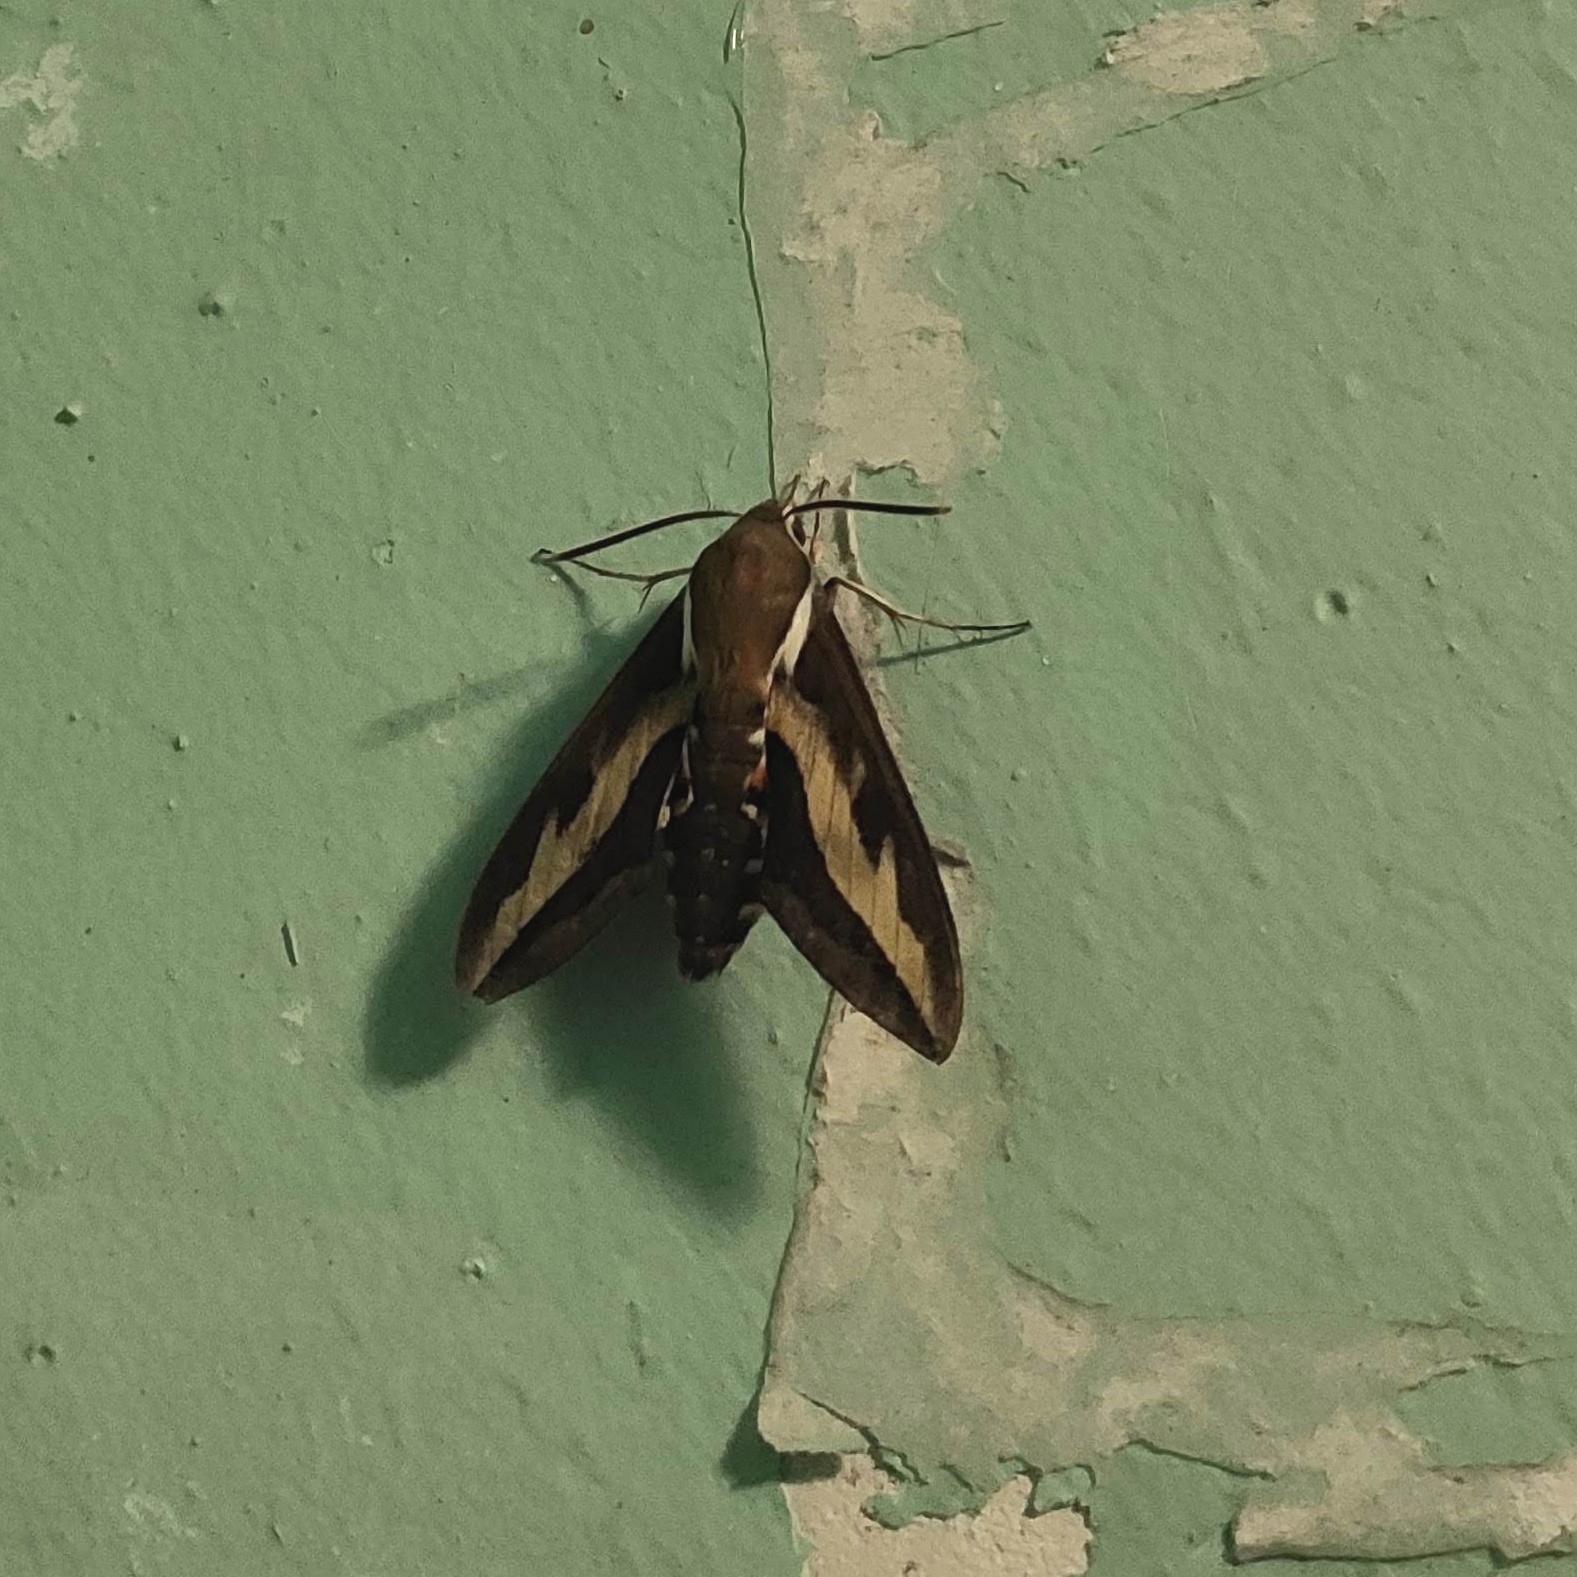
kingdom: Animalia
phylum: Arthropoda
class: Insecta
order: Lepidoptera
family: Sphingidae
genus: Hyles
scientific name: Hyles gallii
